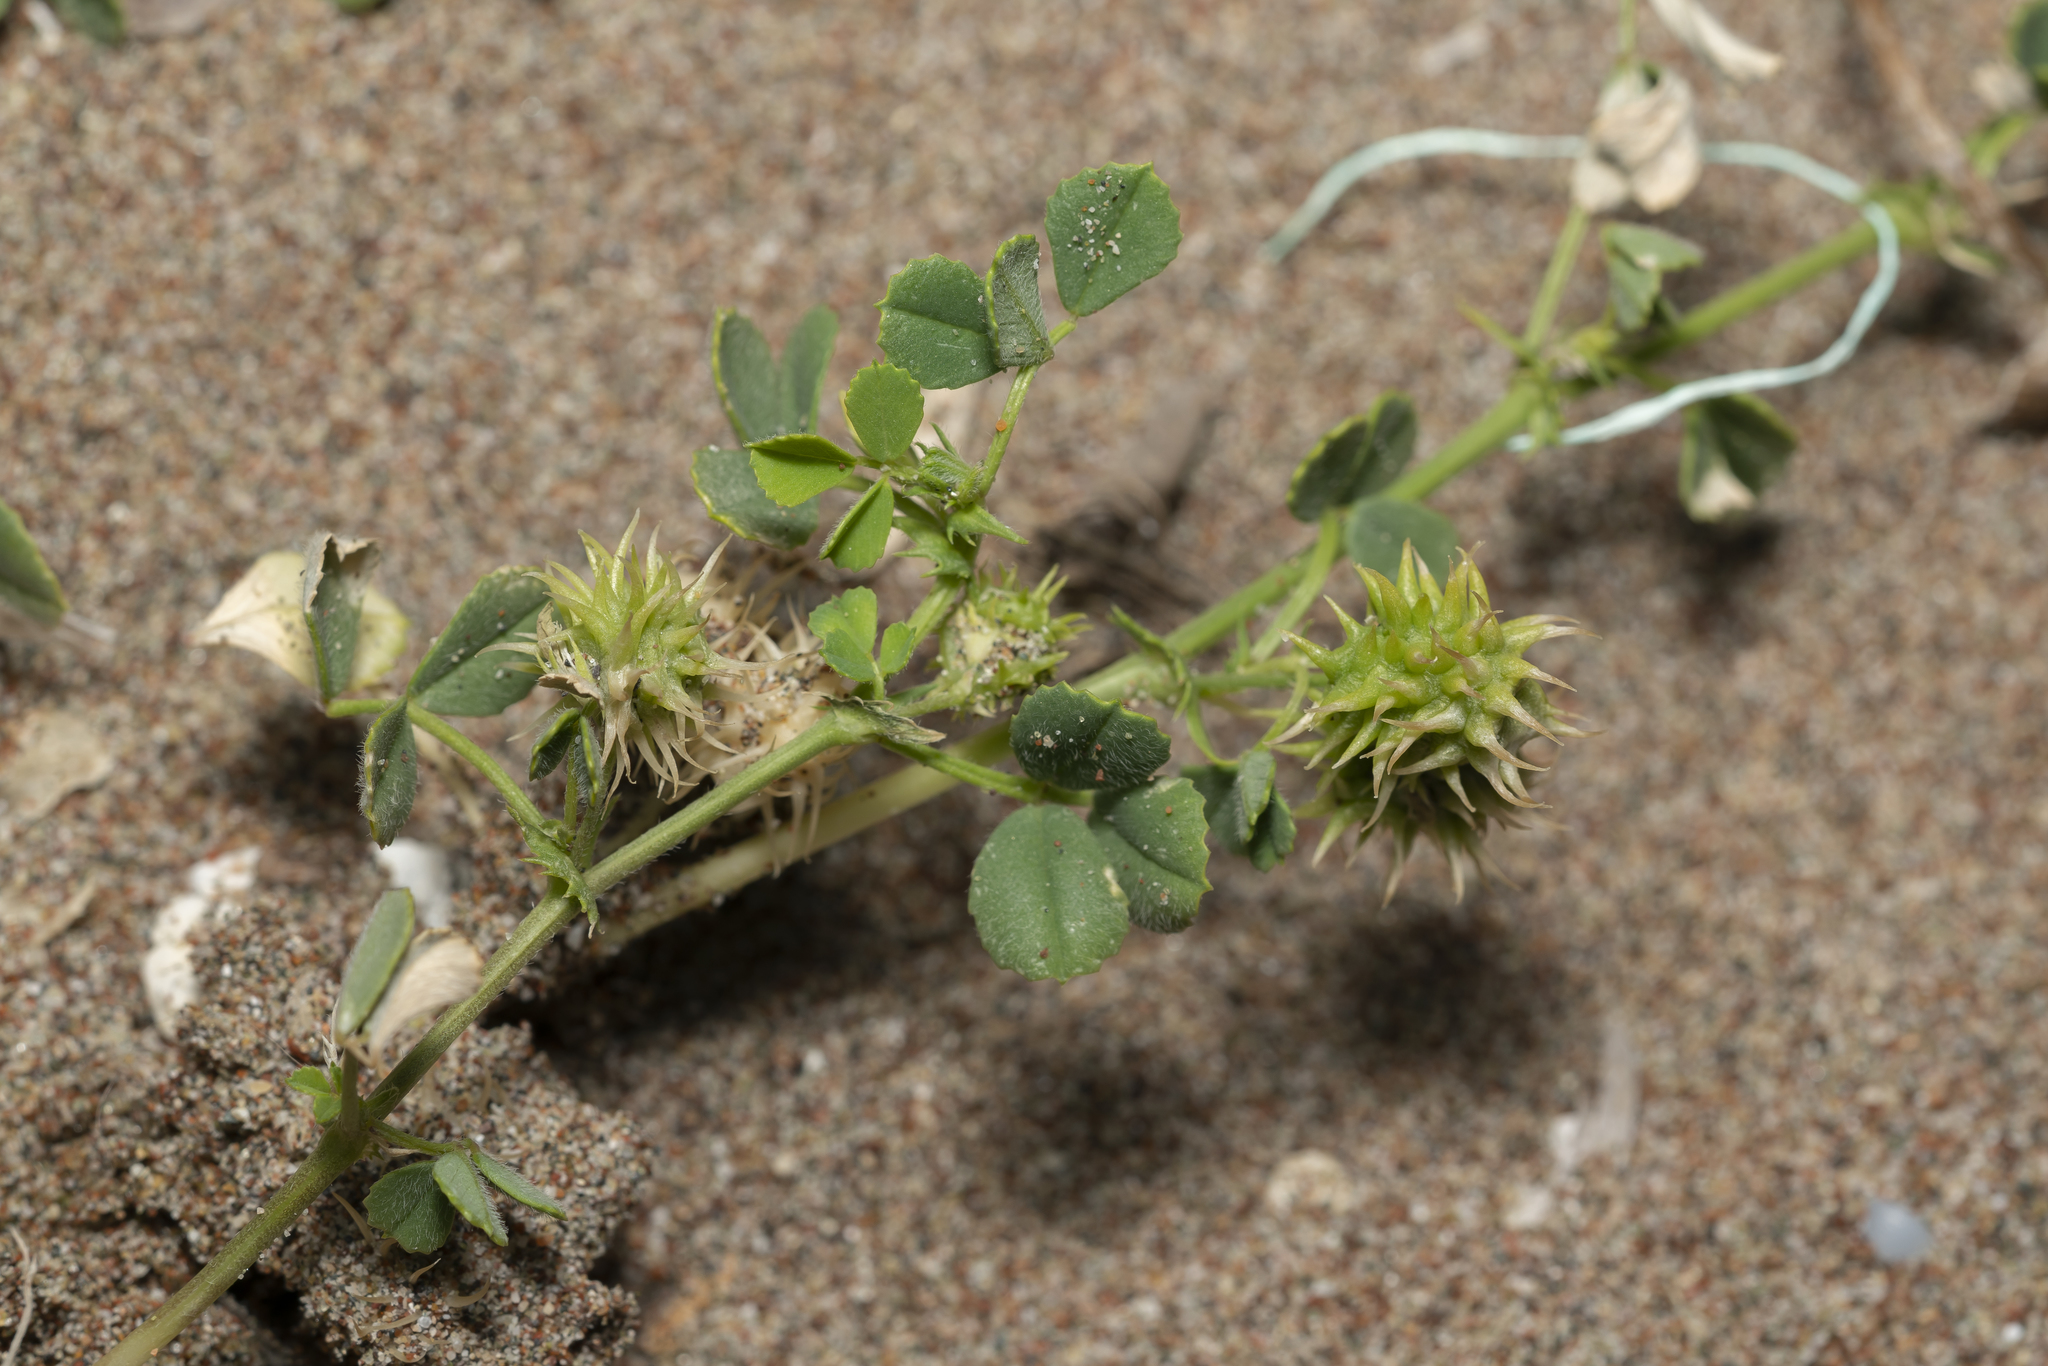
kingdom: Plantae
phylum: Tracheophyta
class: Magnoliopsida
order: Fabales
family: Fabaceae
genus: Medicago
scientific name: Medicago littoralis
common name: Shore medick
